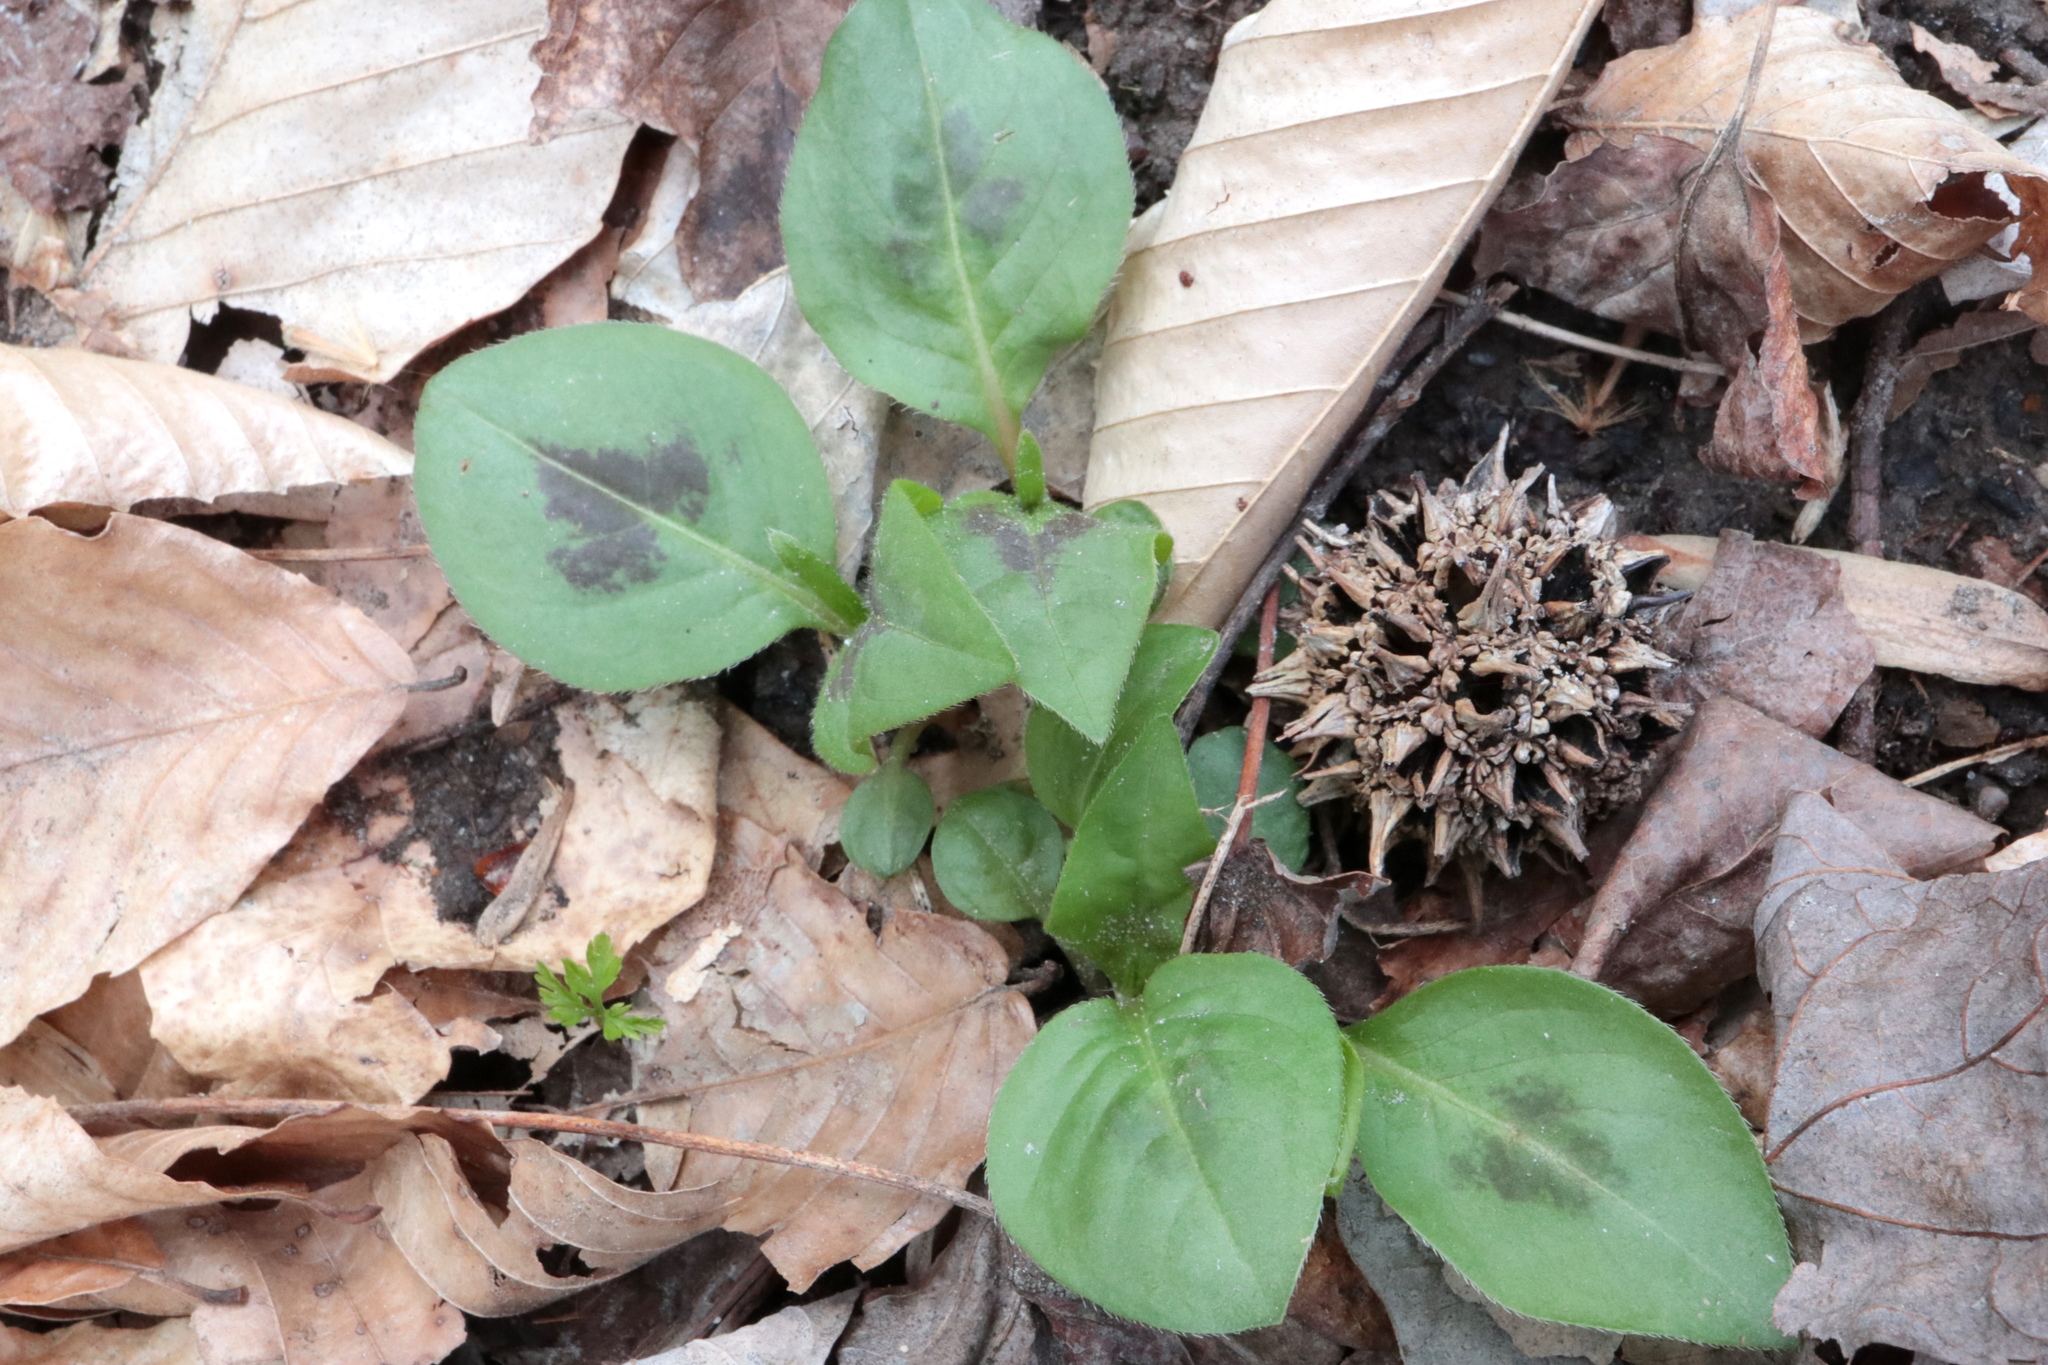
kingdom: Plantae
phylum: Tracheophyta
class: Magnoliopsida
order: Caryophyllales
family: Polygonaceae
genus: Persicaria
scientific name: Persicaria virginiana
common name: Jumpseed
